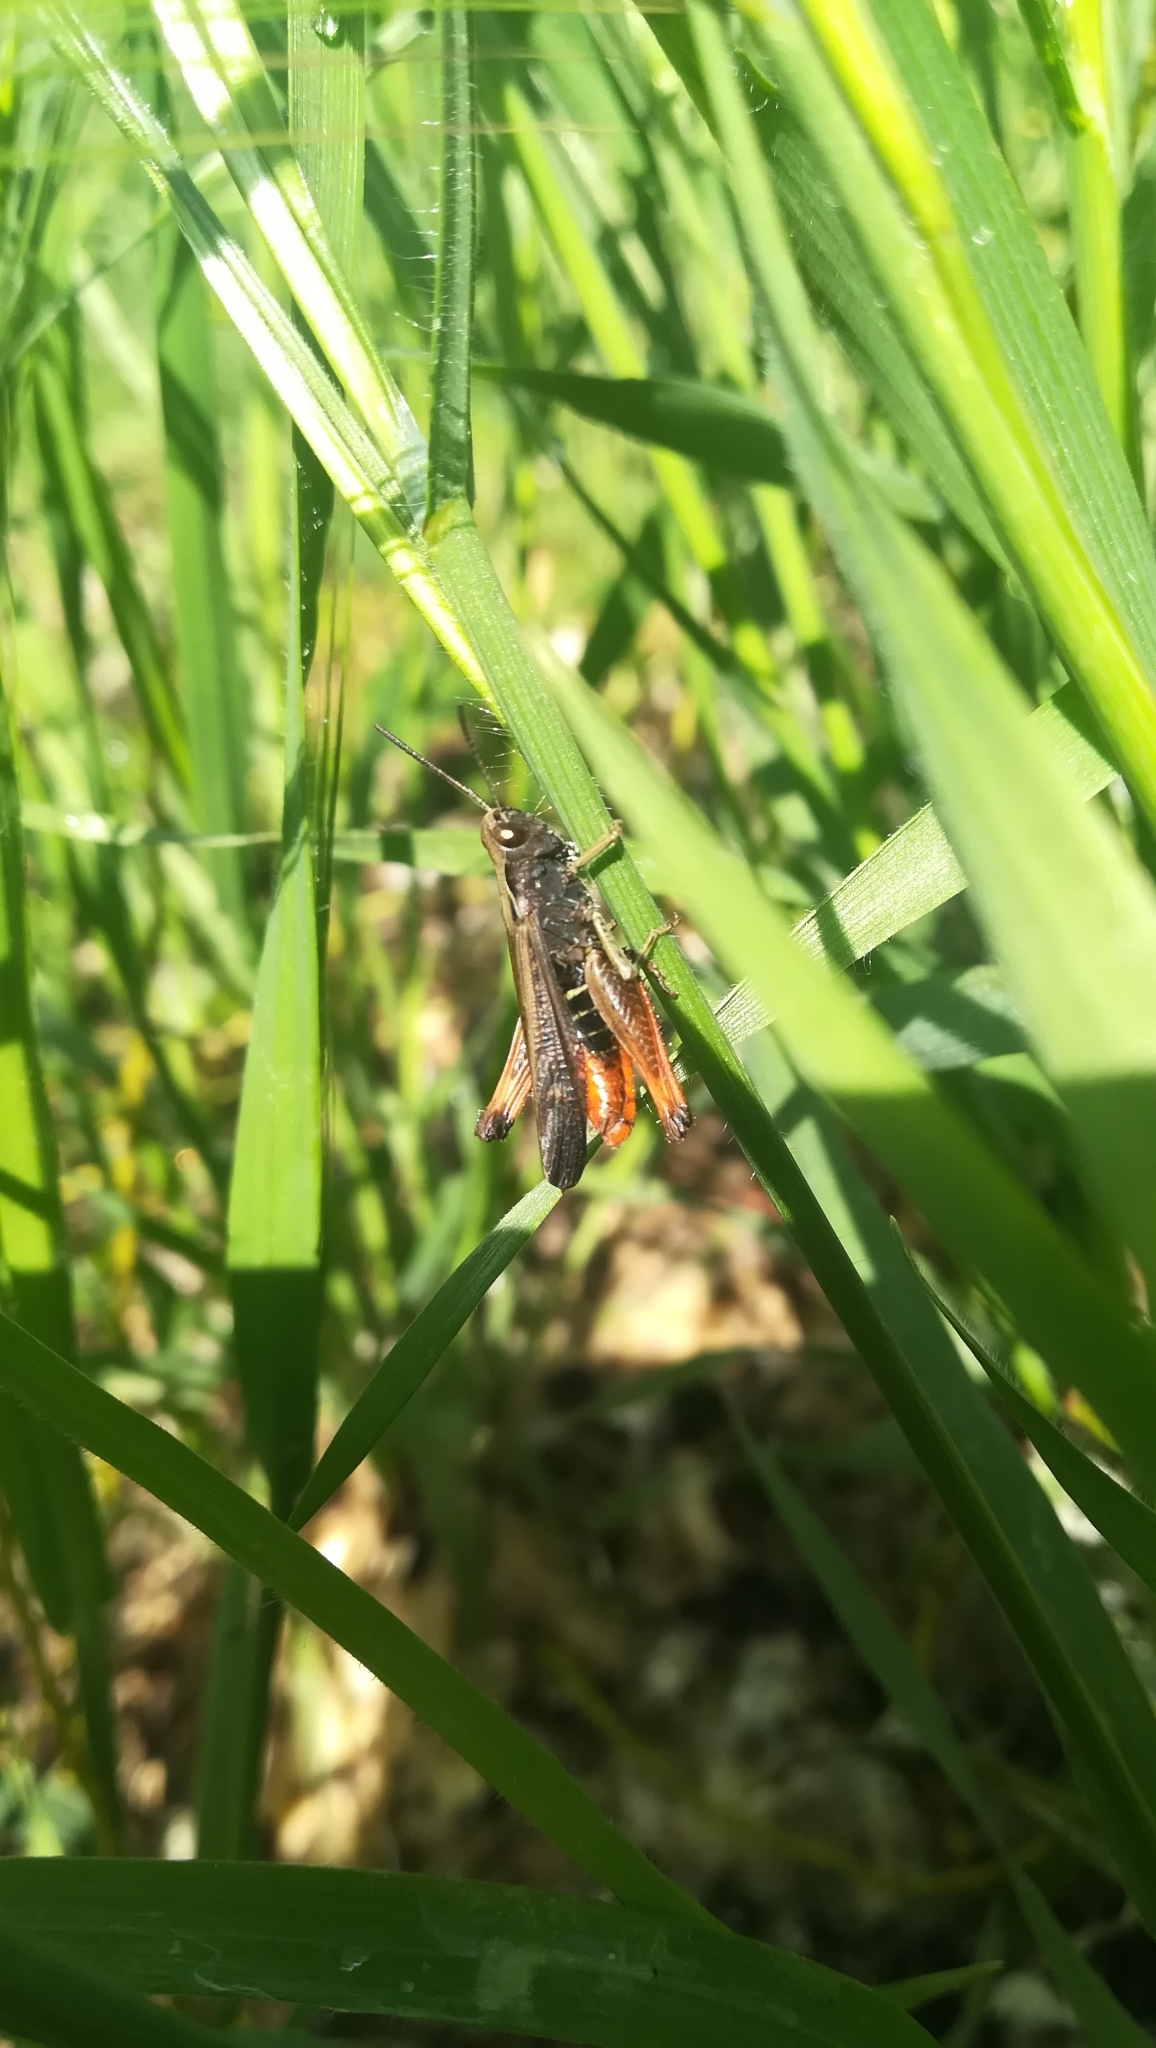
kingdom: Animalia
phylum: Arthropoda
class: Insecta
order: Orthoptera
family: Acrididae
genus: Omocestus
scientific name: Omocestus rufipes
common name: Woodland grasshopper
